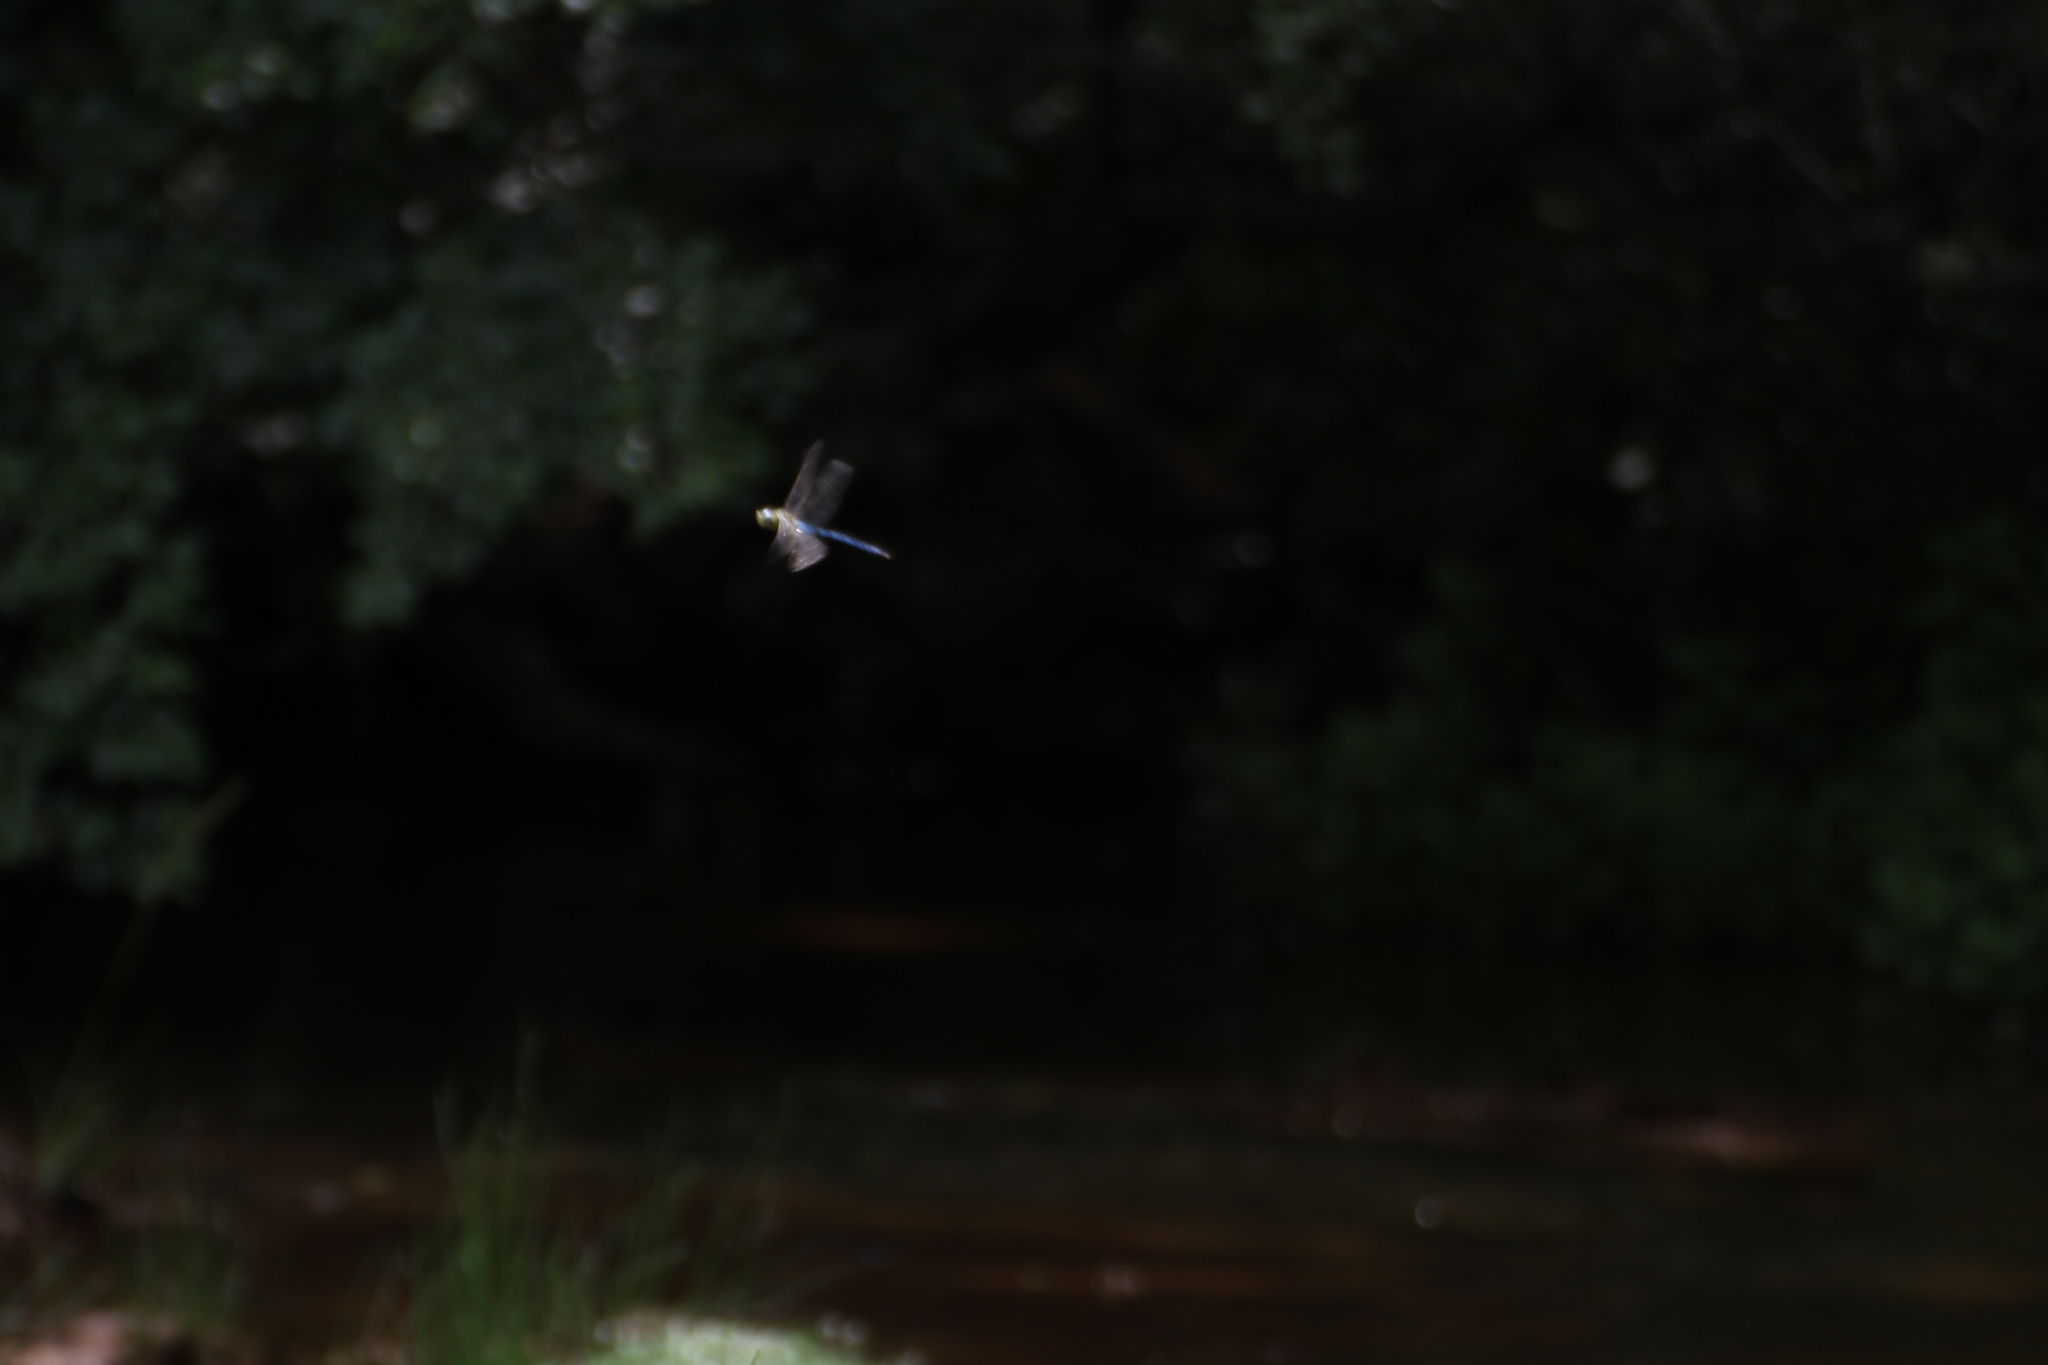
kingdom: Animalia
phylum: Arthropoda
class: Insecta
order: Odonata
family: Aeshnidae
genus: Anax
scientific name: Anax imperator
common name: Emperor dragonfly
